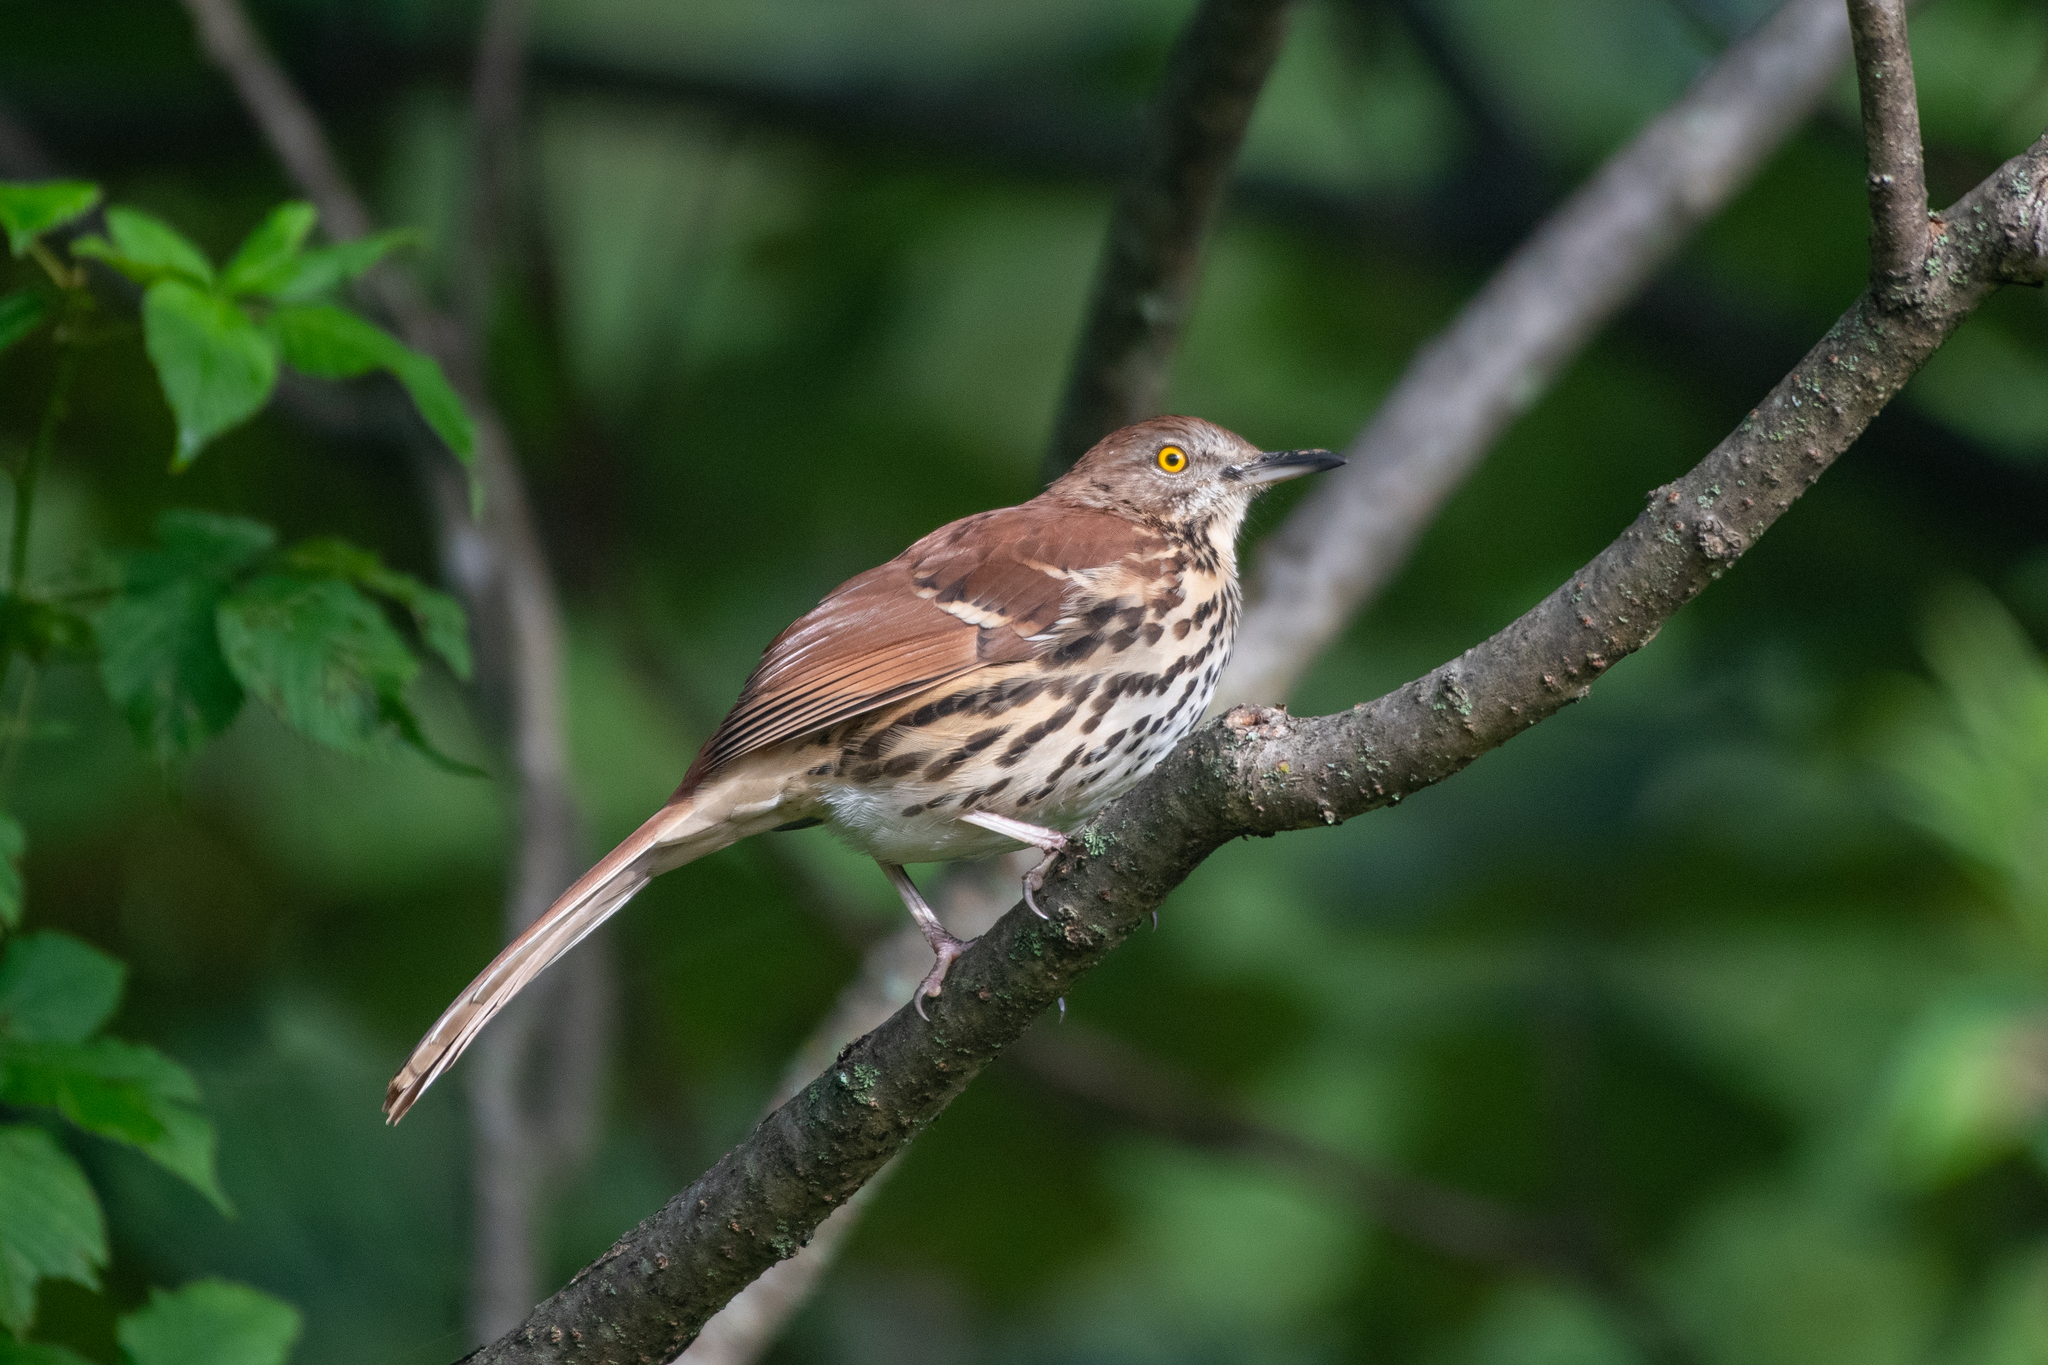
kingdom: Animalia
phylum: Chordata
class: Aves
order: Passeriformes
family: Mimidae
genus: Toxostoma
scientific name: Toxostoma rufum
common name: Brown thrasher
